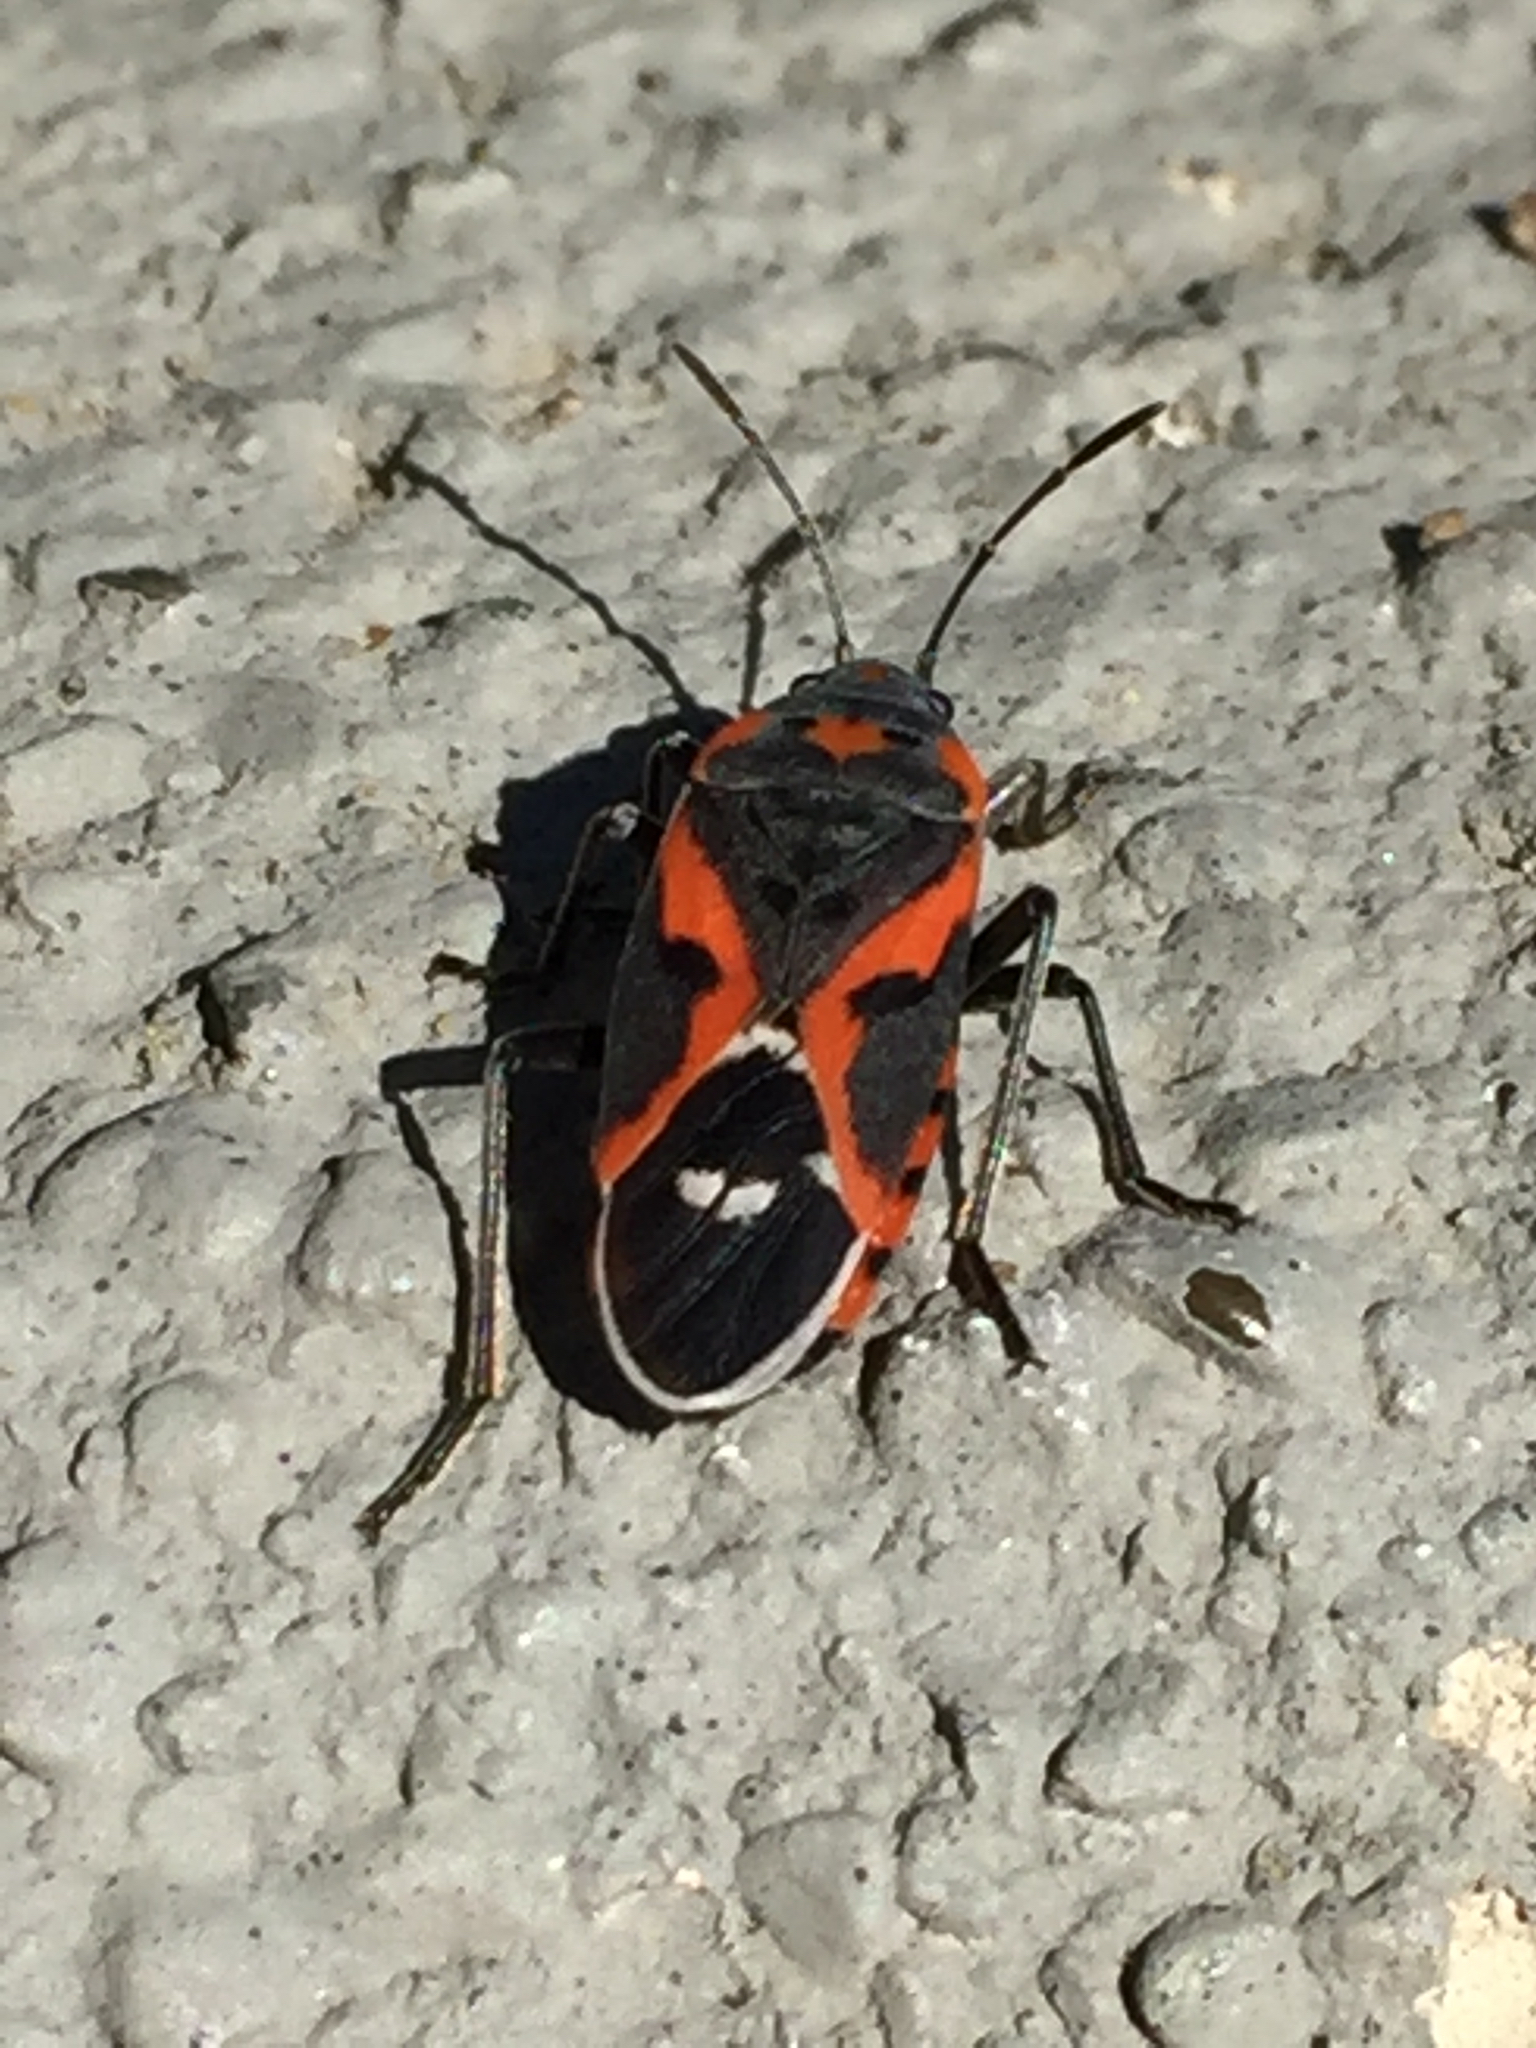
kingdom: Animalia
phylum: Arthropoda
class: Insecta
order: Hemiptera
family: Lygaeidae
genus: Lygaeus
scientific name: Lygaeus kalmii
